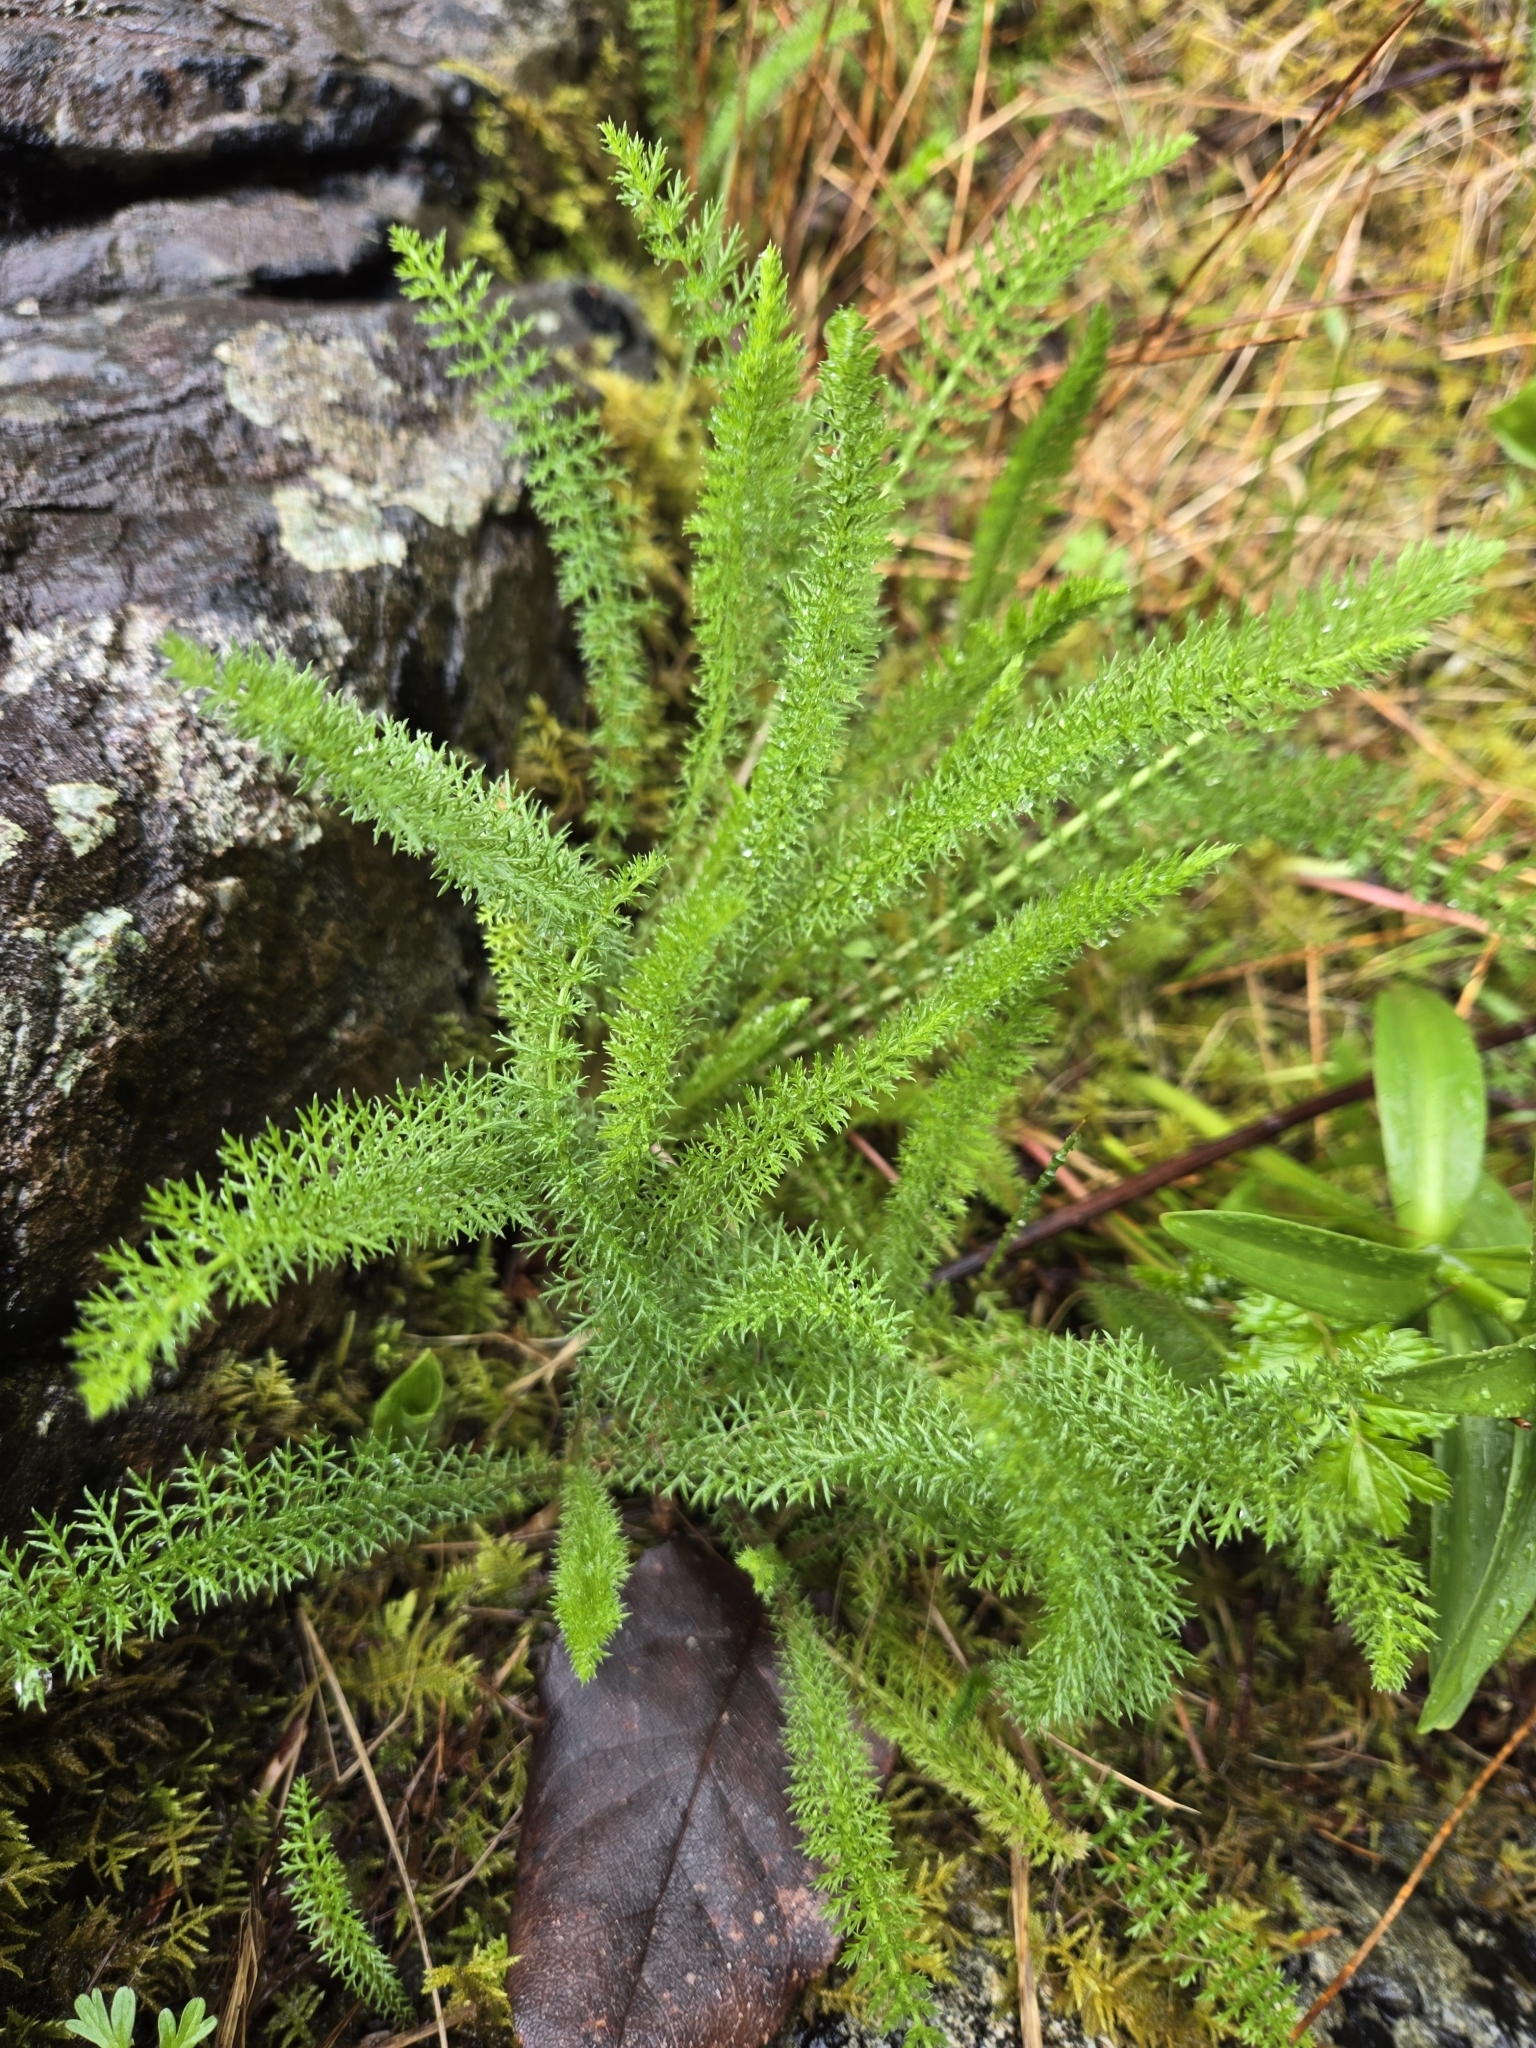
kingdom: Plantae
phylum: Tracheophyta
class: Magnoliopsida
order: Asterales
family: Asteraceae
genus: Achillea
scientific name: Achillea millefolium
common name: Yarrow
